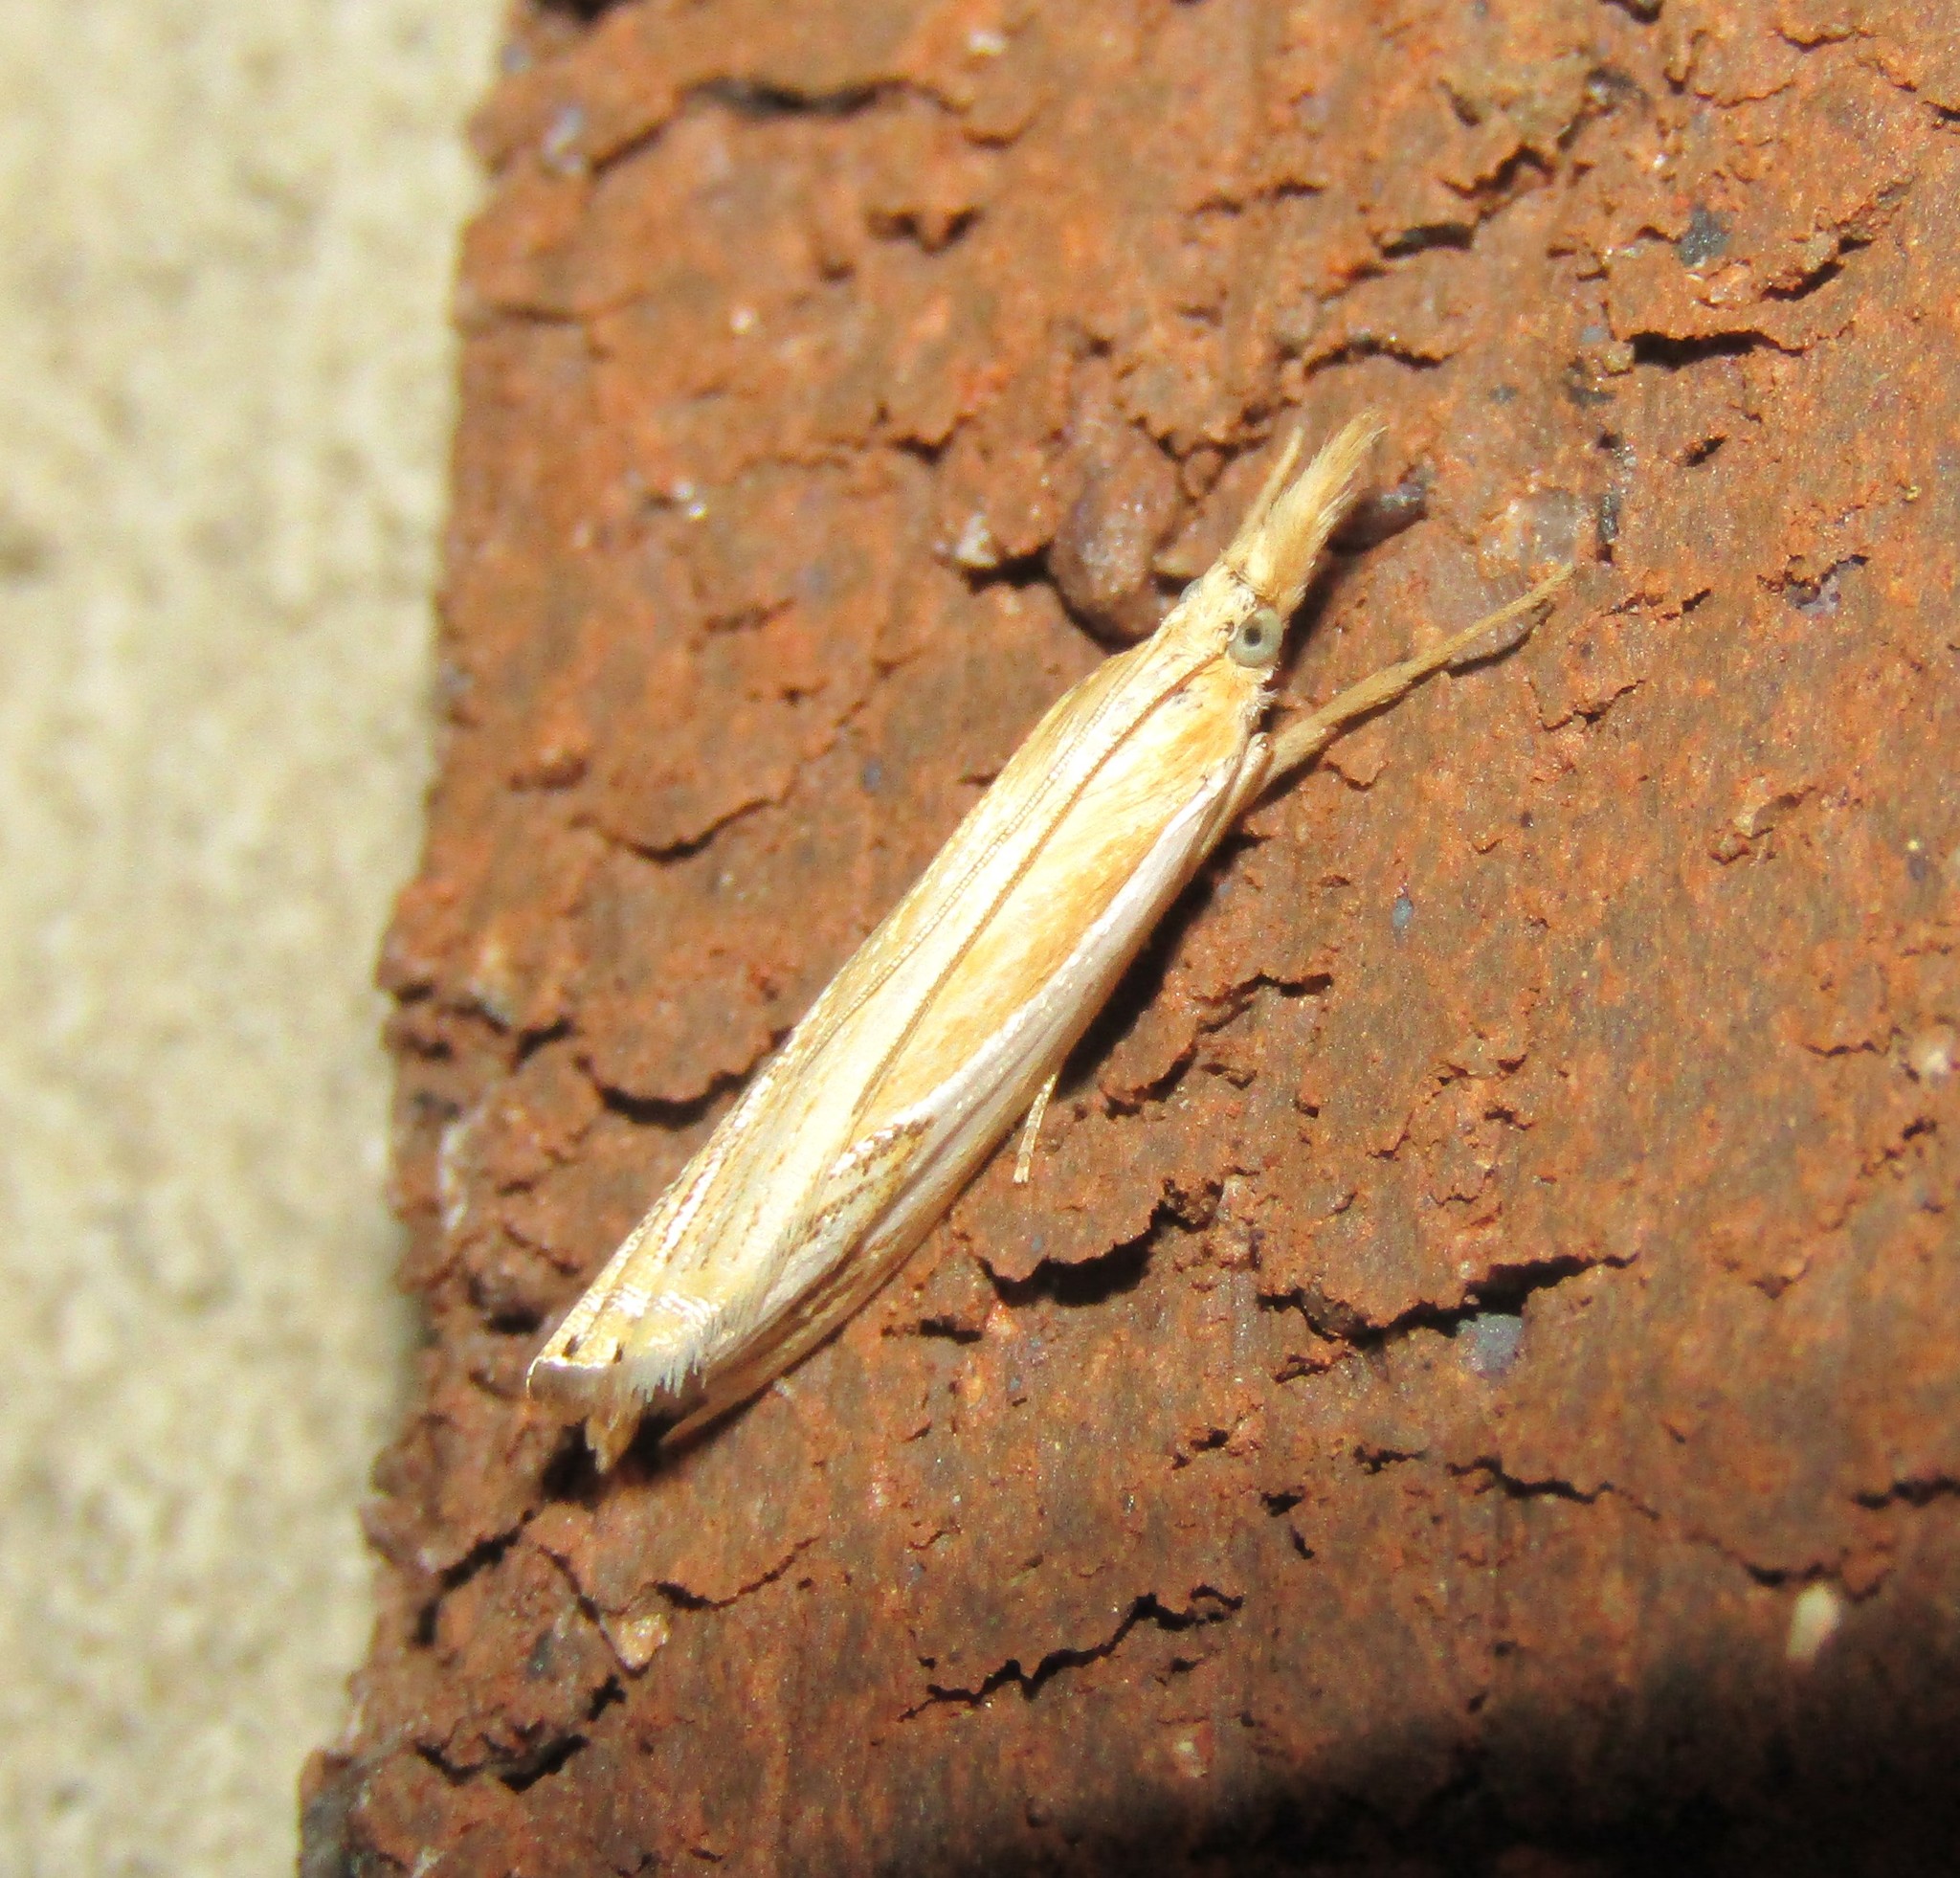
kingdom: Animalia
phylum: Arthropoda
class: Insecta
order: Lepidoptera
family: Crambidae
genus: Crambus
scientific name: Crambus agitatellus
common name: Double-banded grass-veneer
